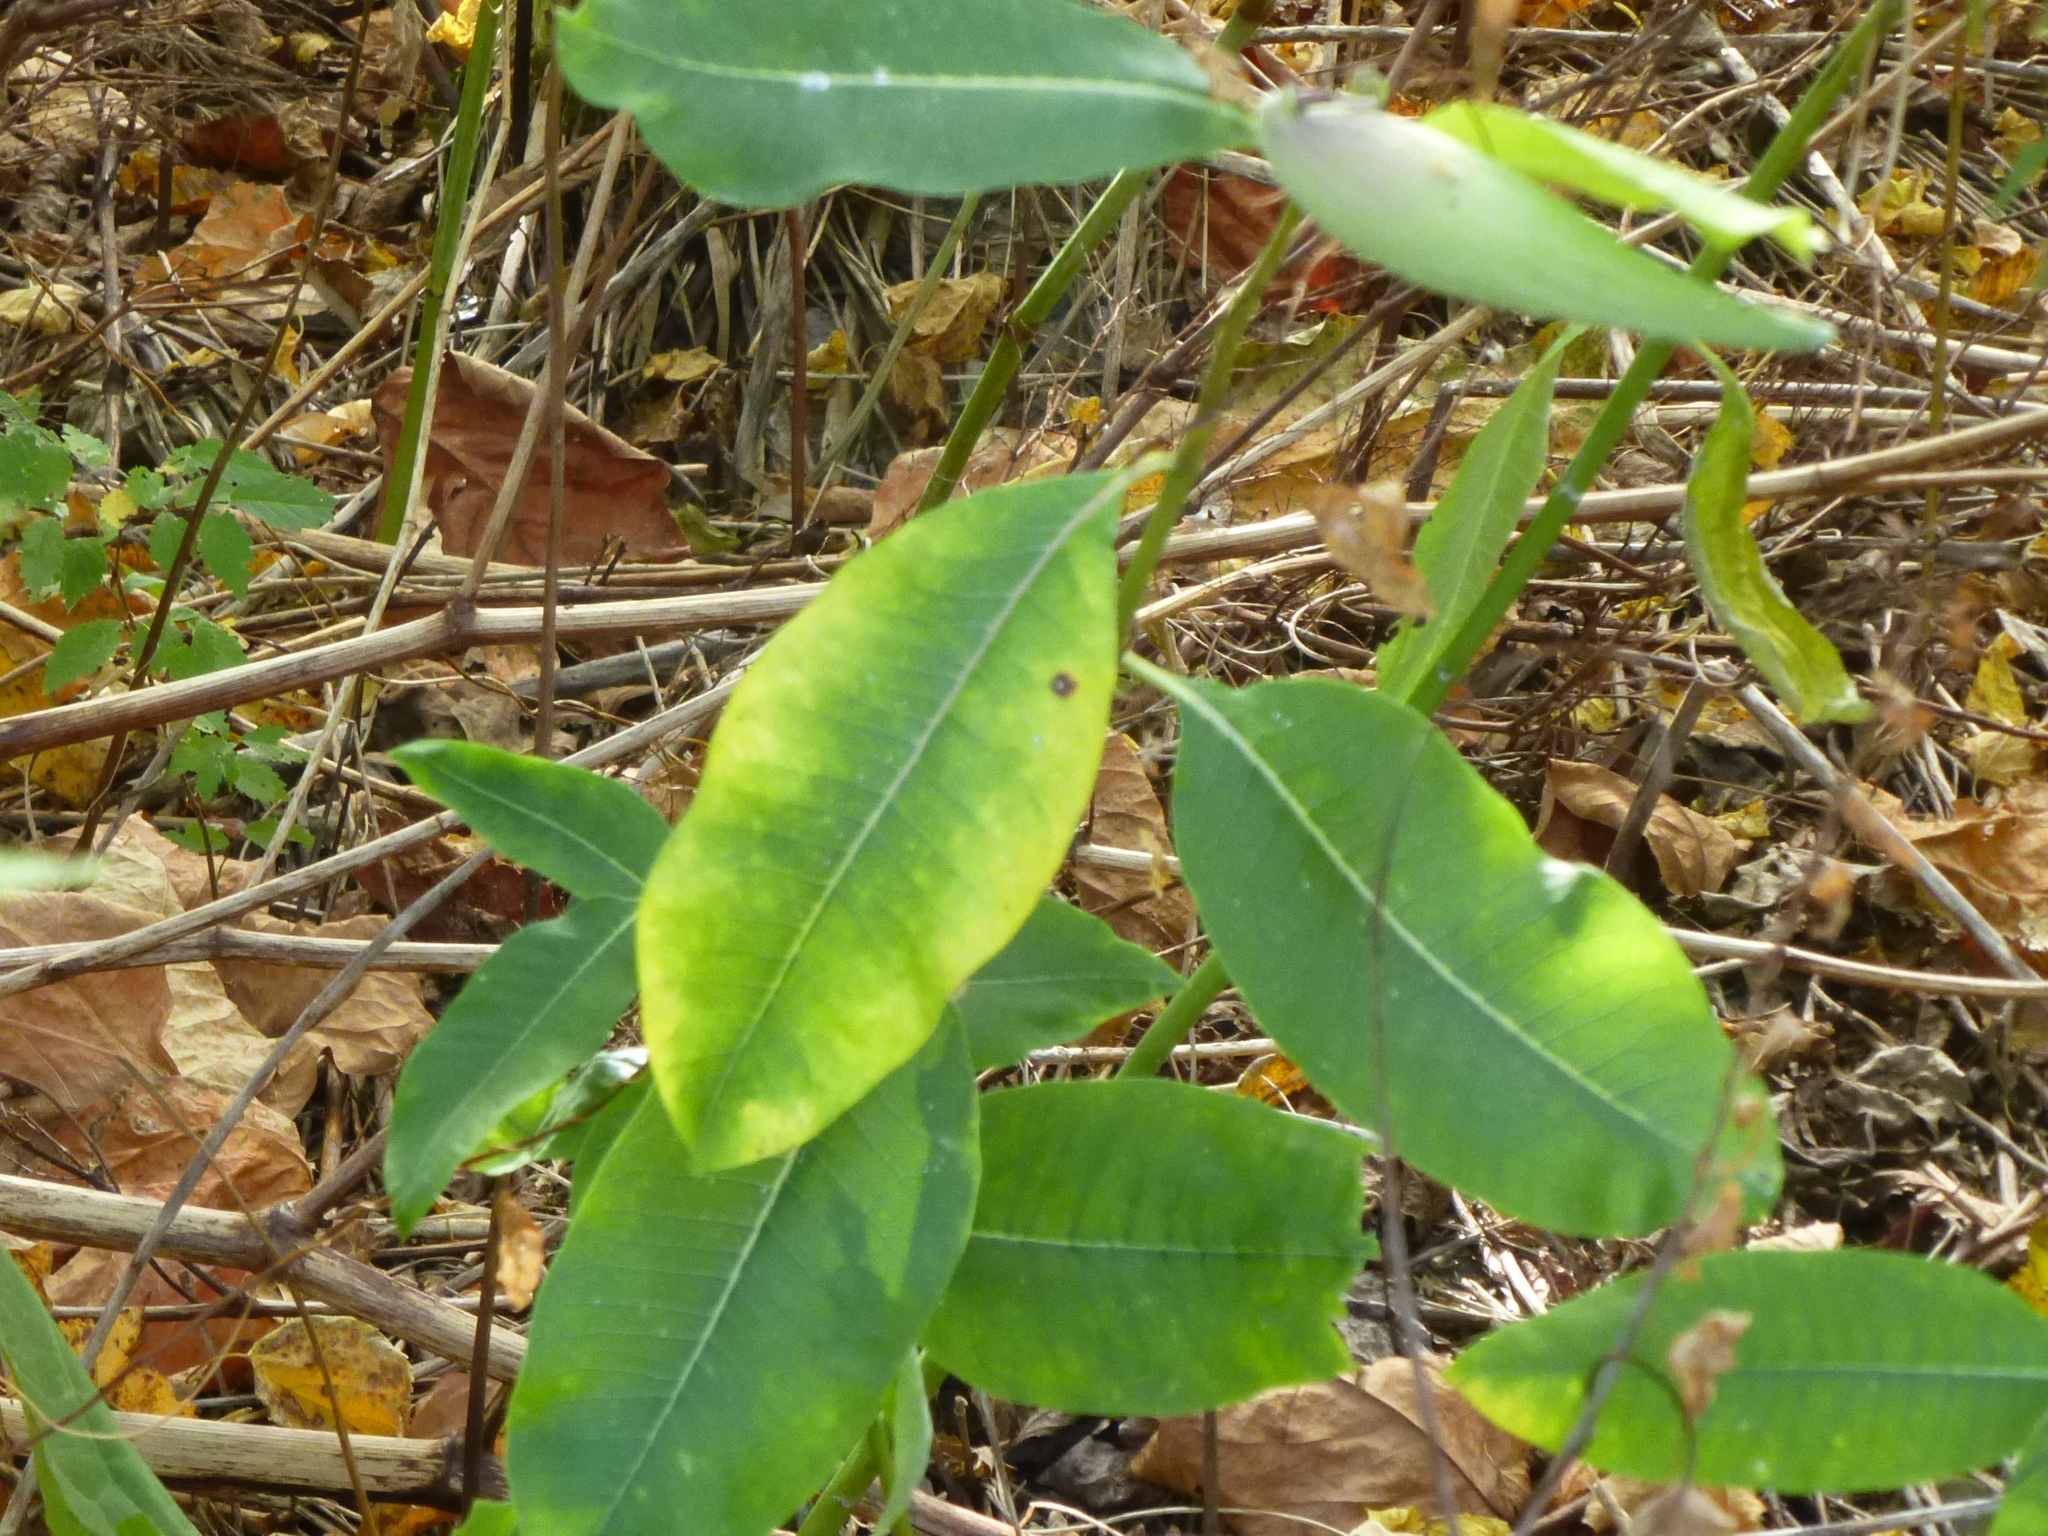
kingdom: Plantae
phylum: Tracheophyta
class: Magnoliopsida
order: Gentianales
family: Apocynaceae
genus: Asclepias
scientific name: Asclepias syriaca
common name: Common milkweed
